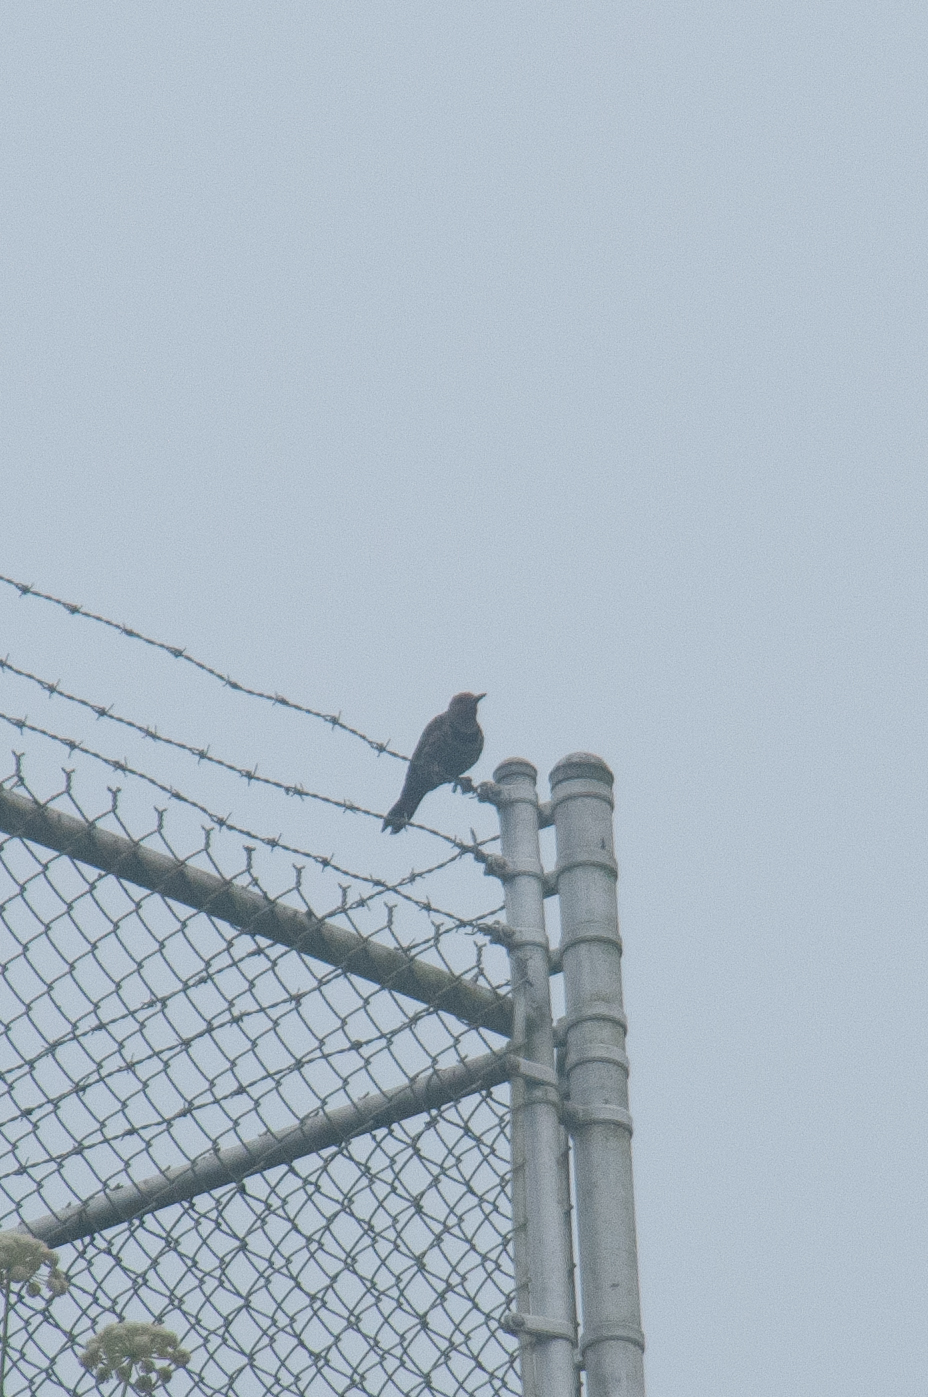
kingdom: Animalia
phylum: Chordata
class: Aves
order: Piciformes
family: Picidae
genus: Colaptes
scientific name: Colaptes auratus
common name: Northern flicker
